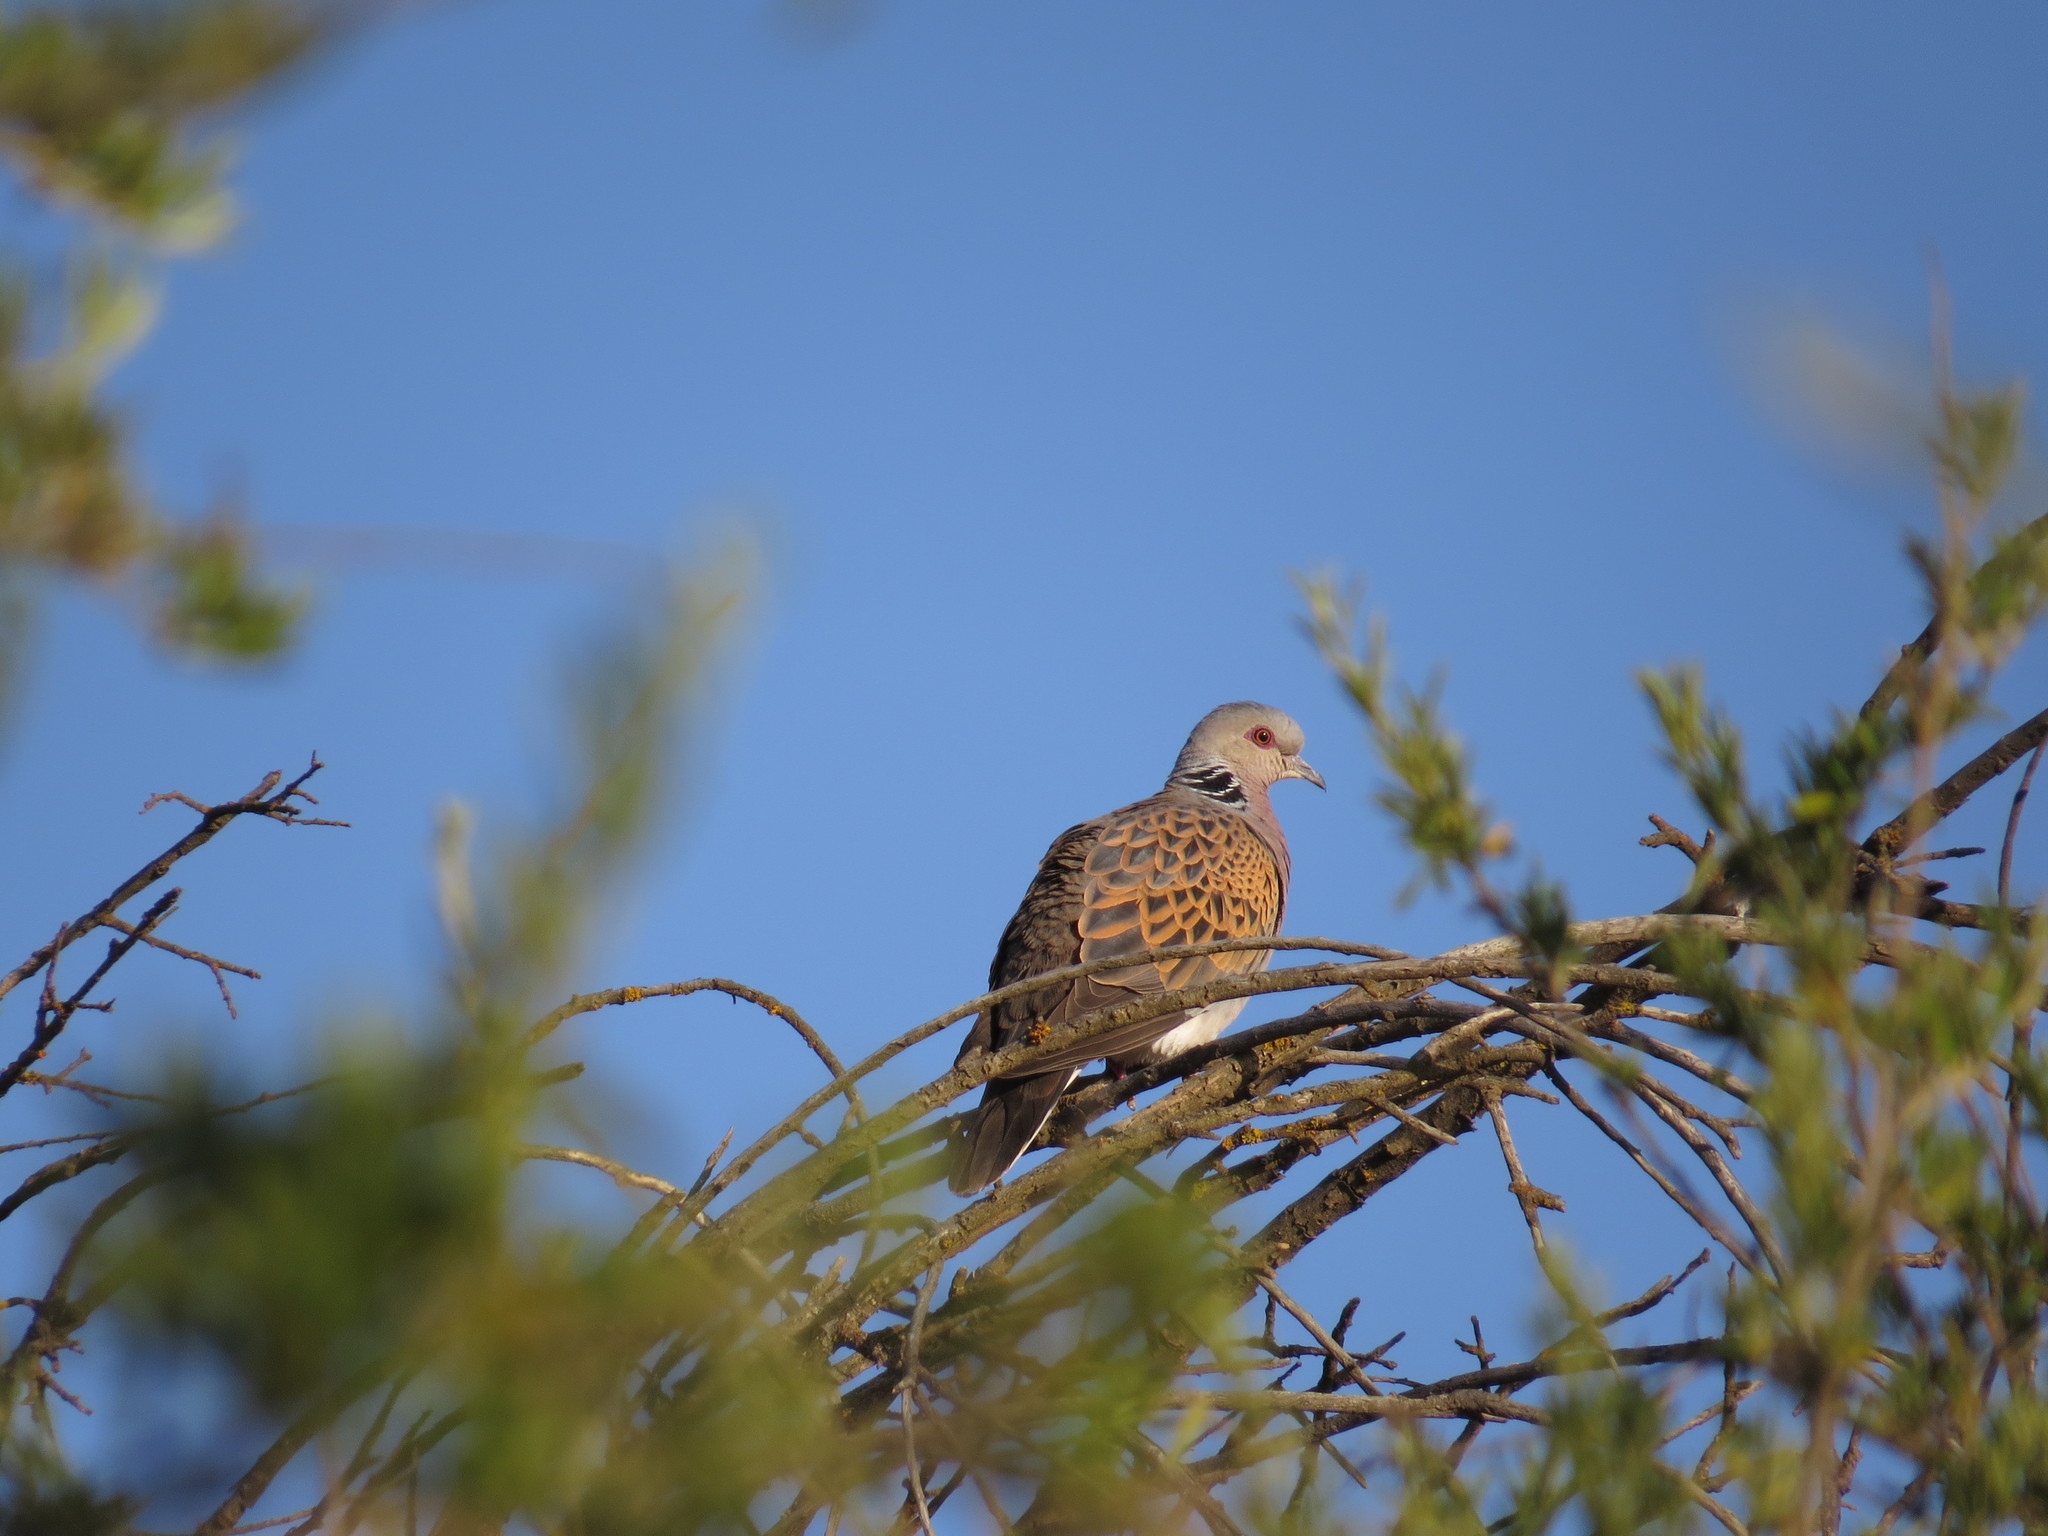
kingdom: Animalia
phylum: Chordata
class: Aves
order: Columbiformes
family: Columbidae
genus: Streptopelia
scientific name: Streptopelia turtur
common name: European turtle dove
